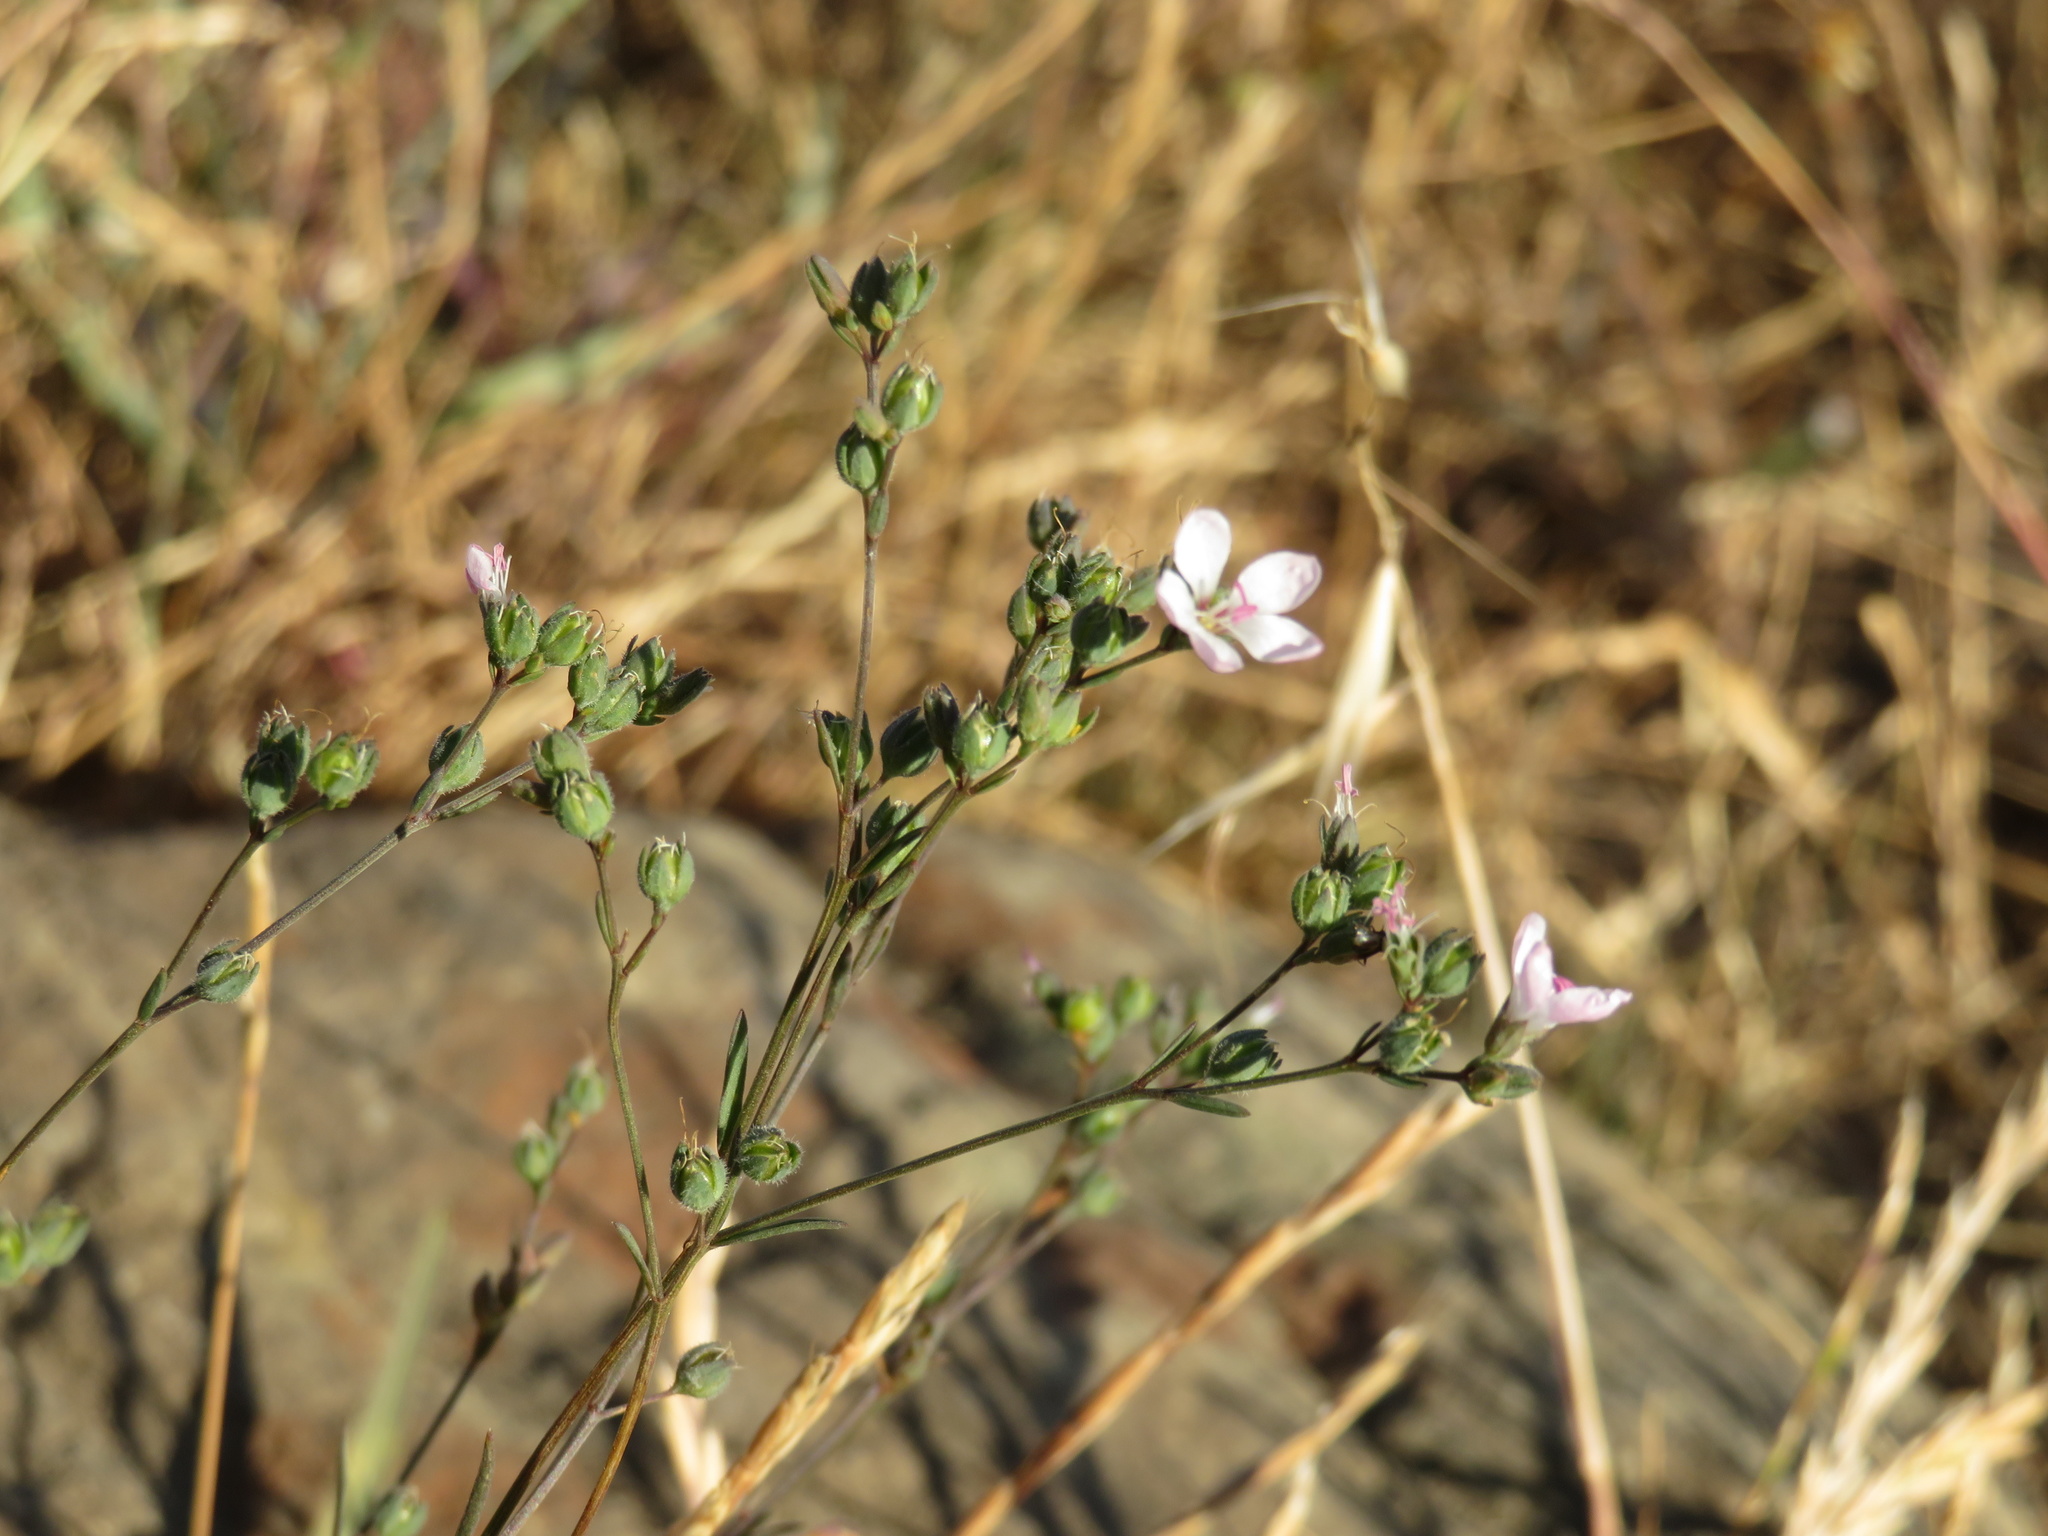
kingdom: Plantae
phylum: Tracheophyta
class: Magnoliopsida
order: Malpighiales
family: Linaceae
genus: Hesperolinon
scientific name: Hesperolinon congestum
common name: Marin dwarf-flax
